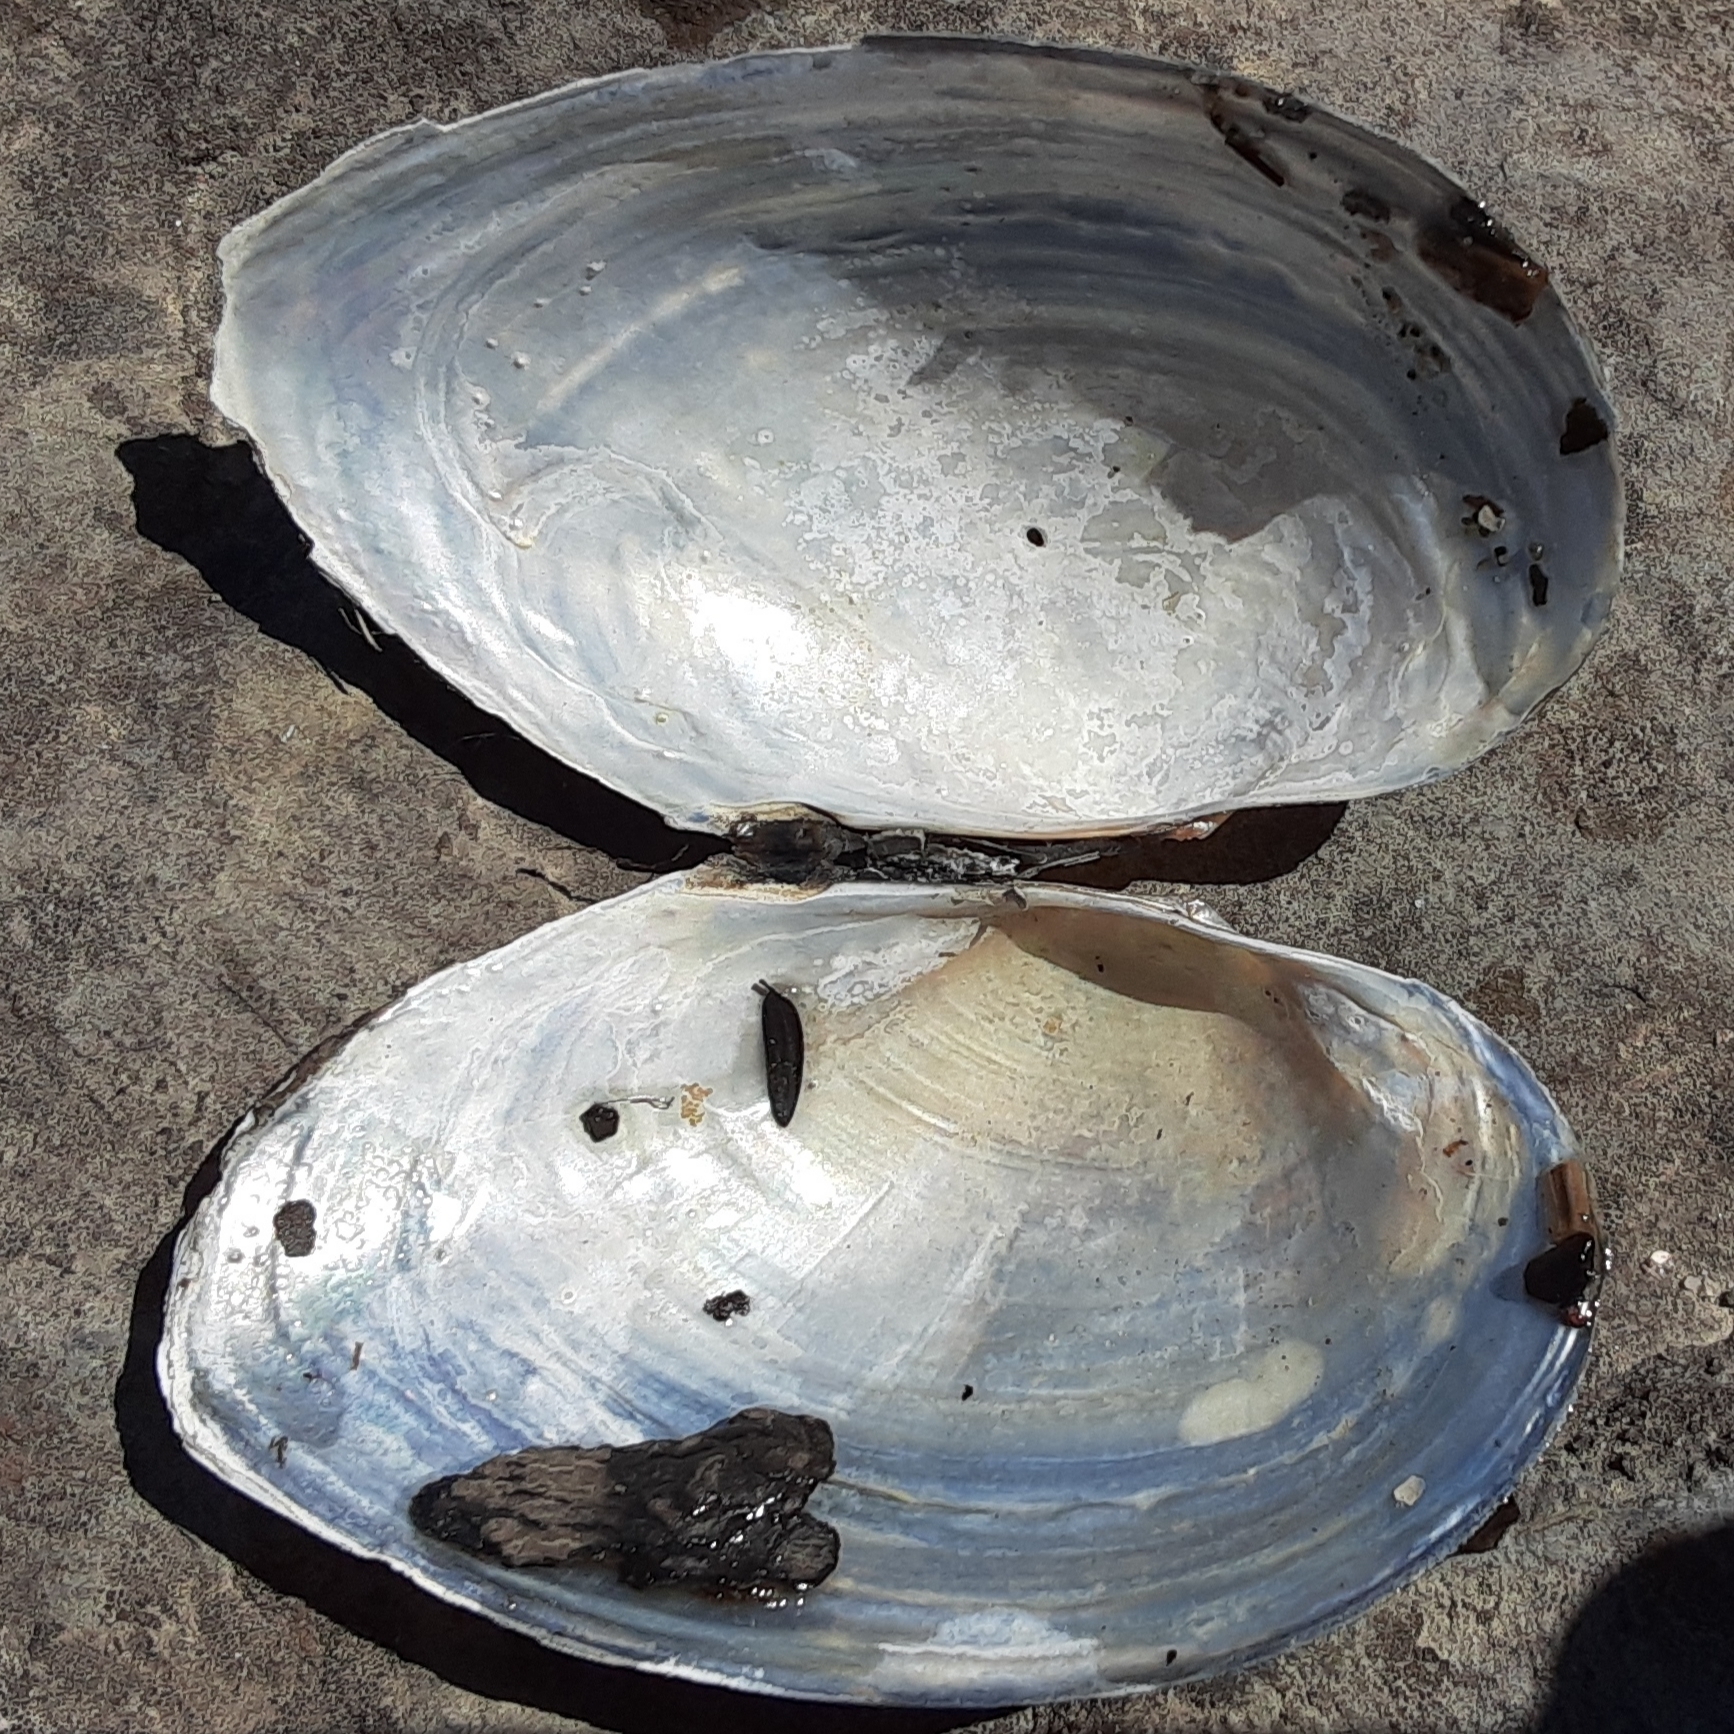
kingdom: Animalia
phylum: Mollusca
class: Bivalvia
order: Unionida
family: Unionidae
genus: Pyganodon
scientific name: Pyganodon grandis
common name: Giant floater
